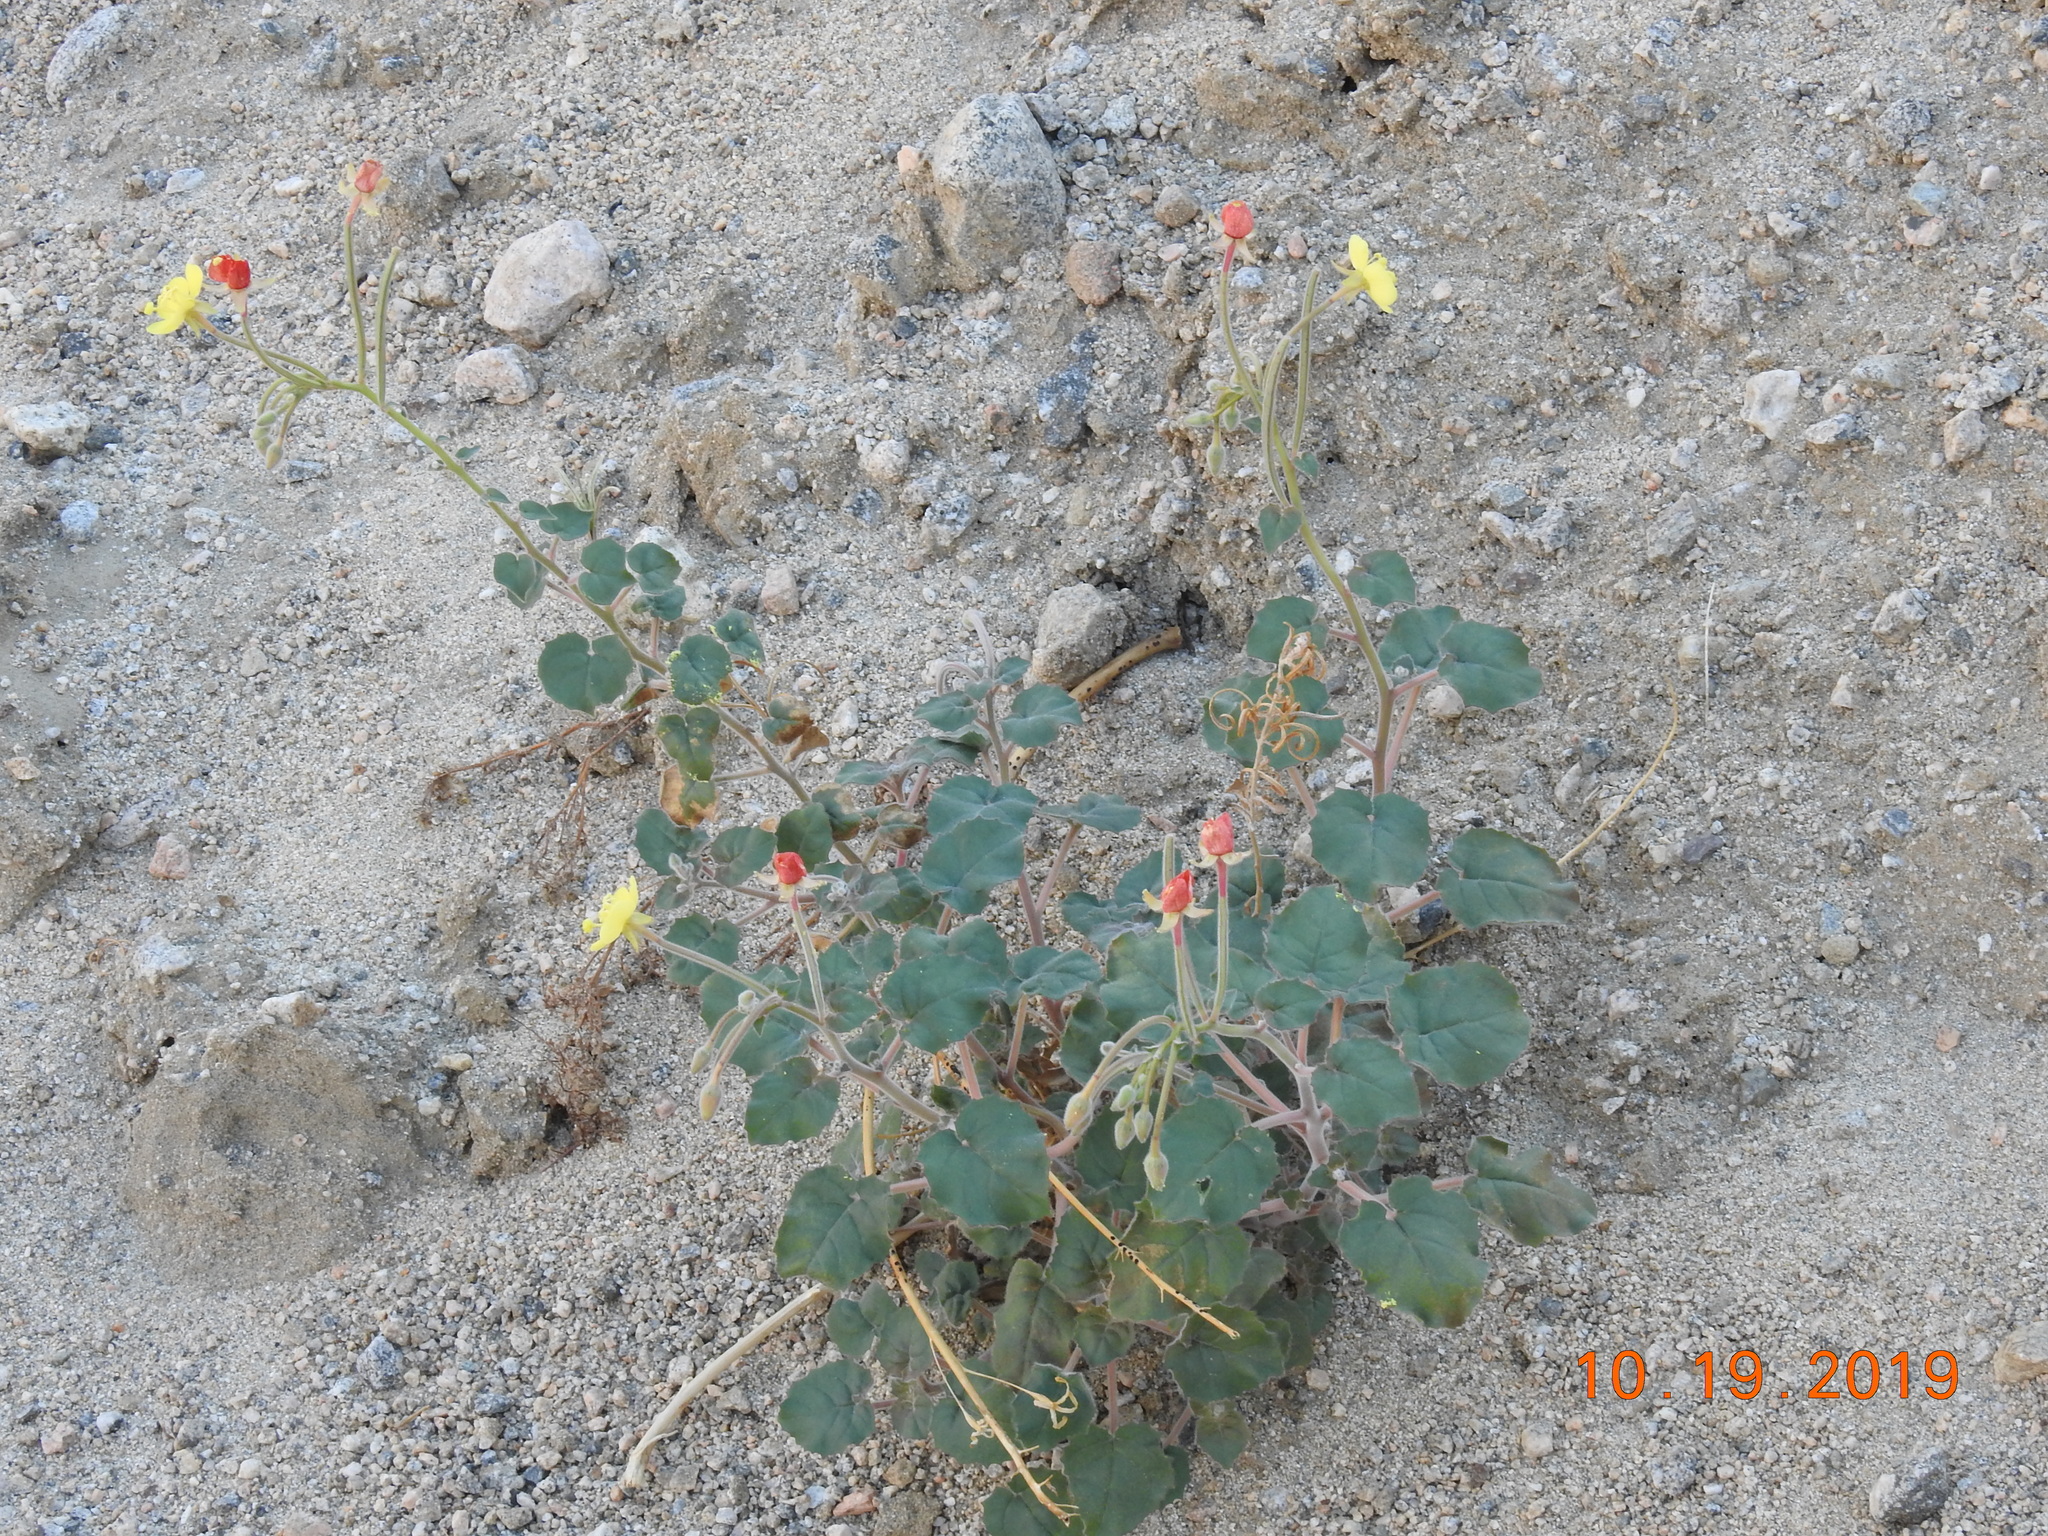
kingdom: Plantae
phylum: Tracheophyta
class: Magnoliopsida
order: Myrtales
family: Onagraceae
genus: Chylismia
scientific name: Chylismia cardiophylla
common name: Heartleaf suncup
